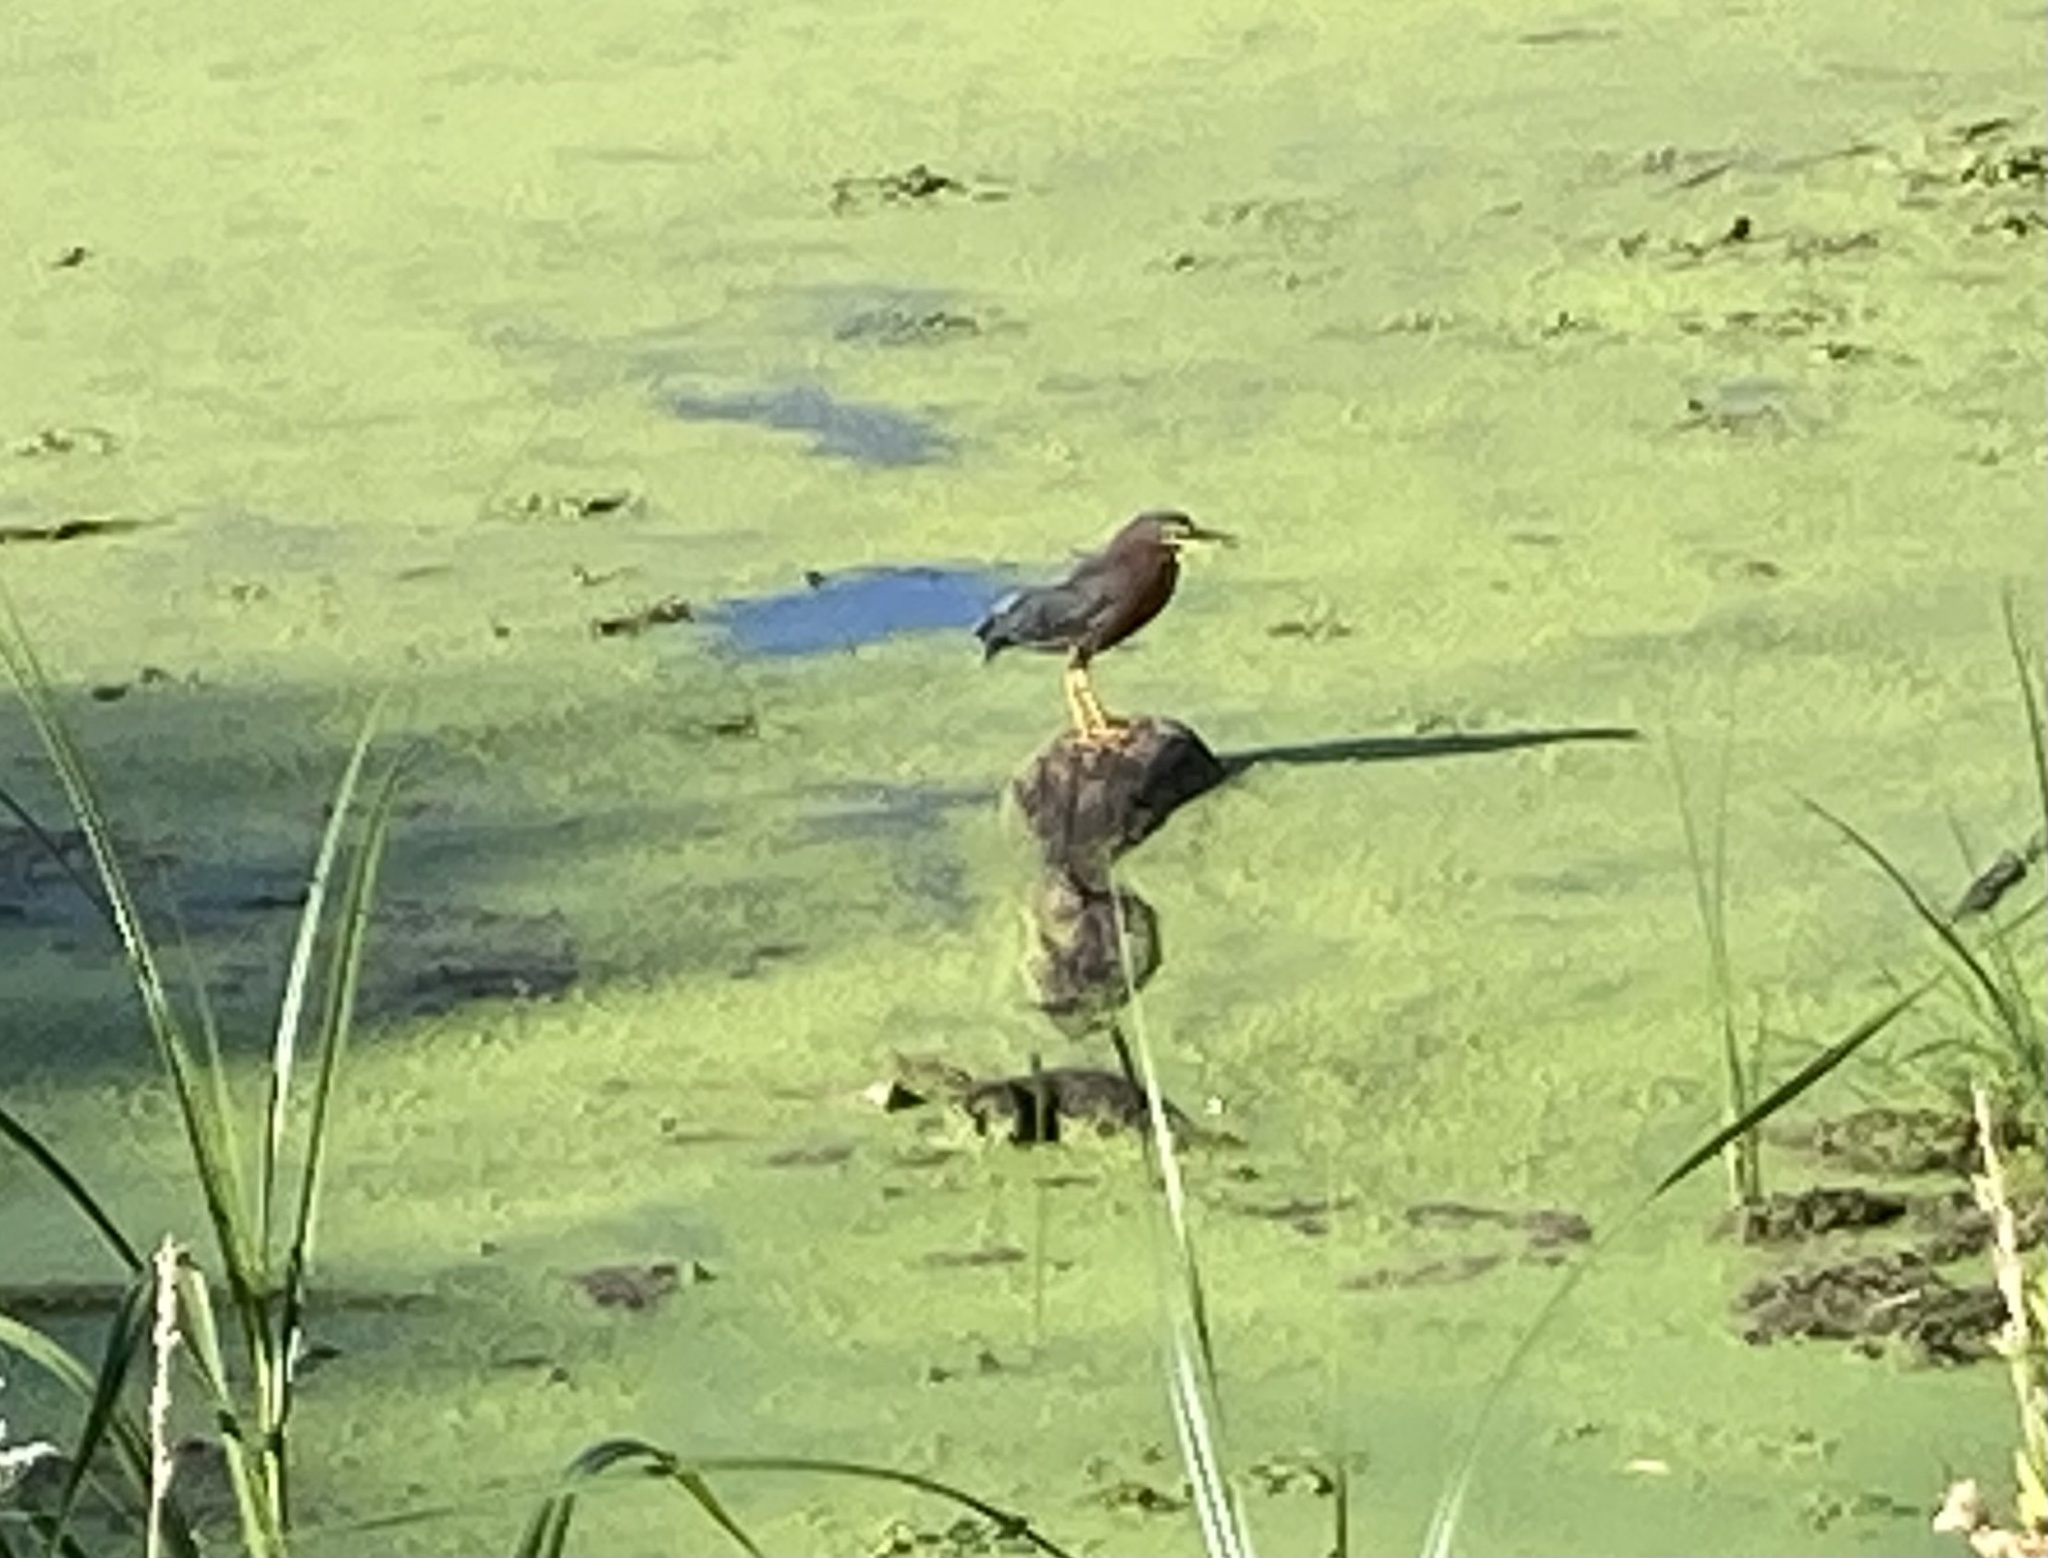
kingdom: Animalia
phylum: Chordata
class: Aves
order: Pelecaniformes
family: Ardeidae
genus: Butorides
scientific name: Butorides virescens
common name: Green heron
